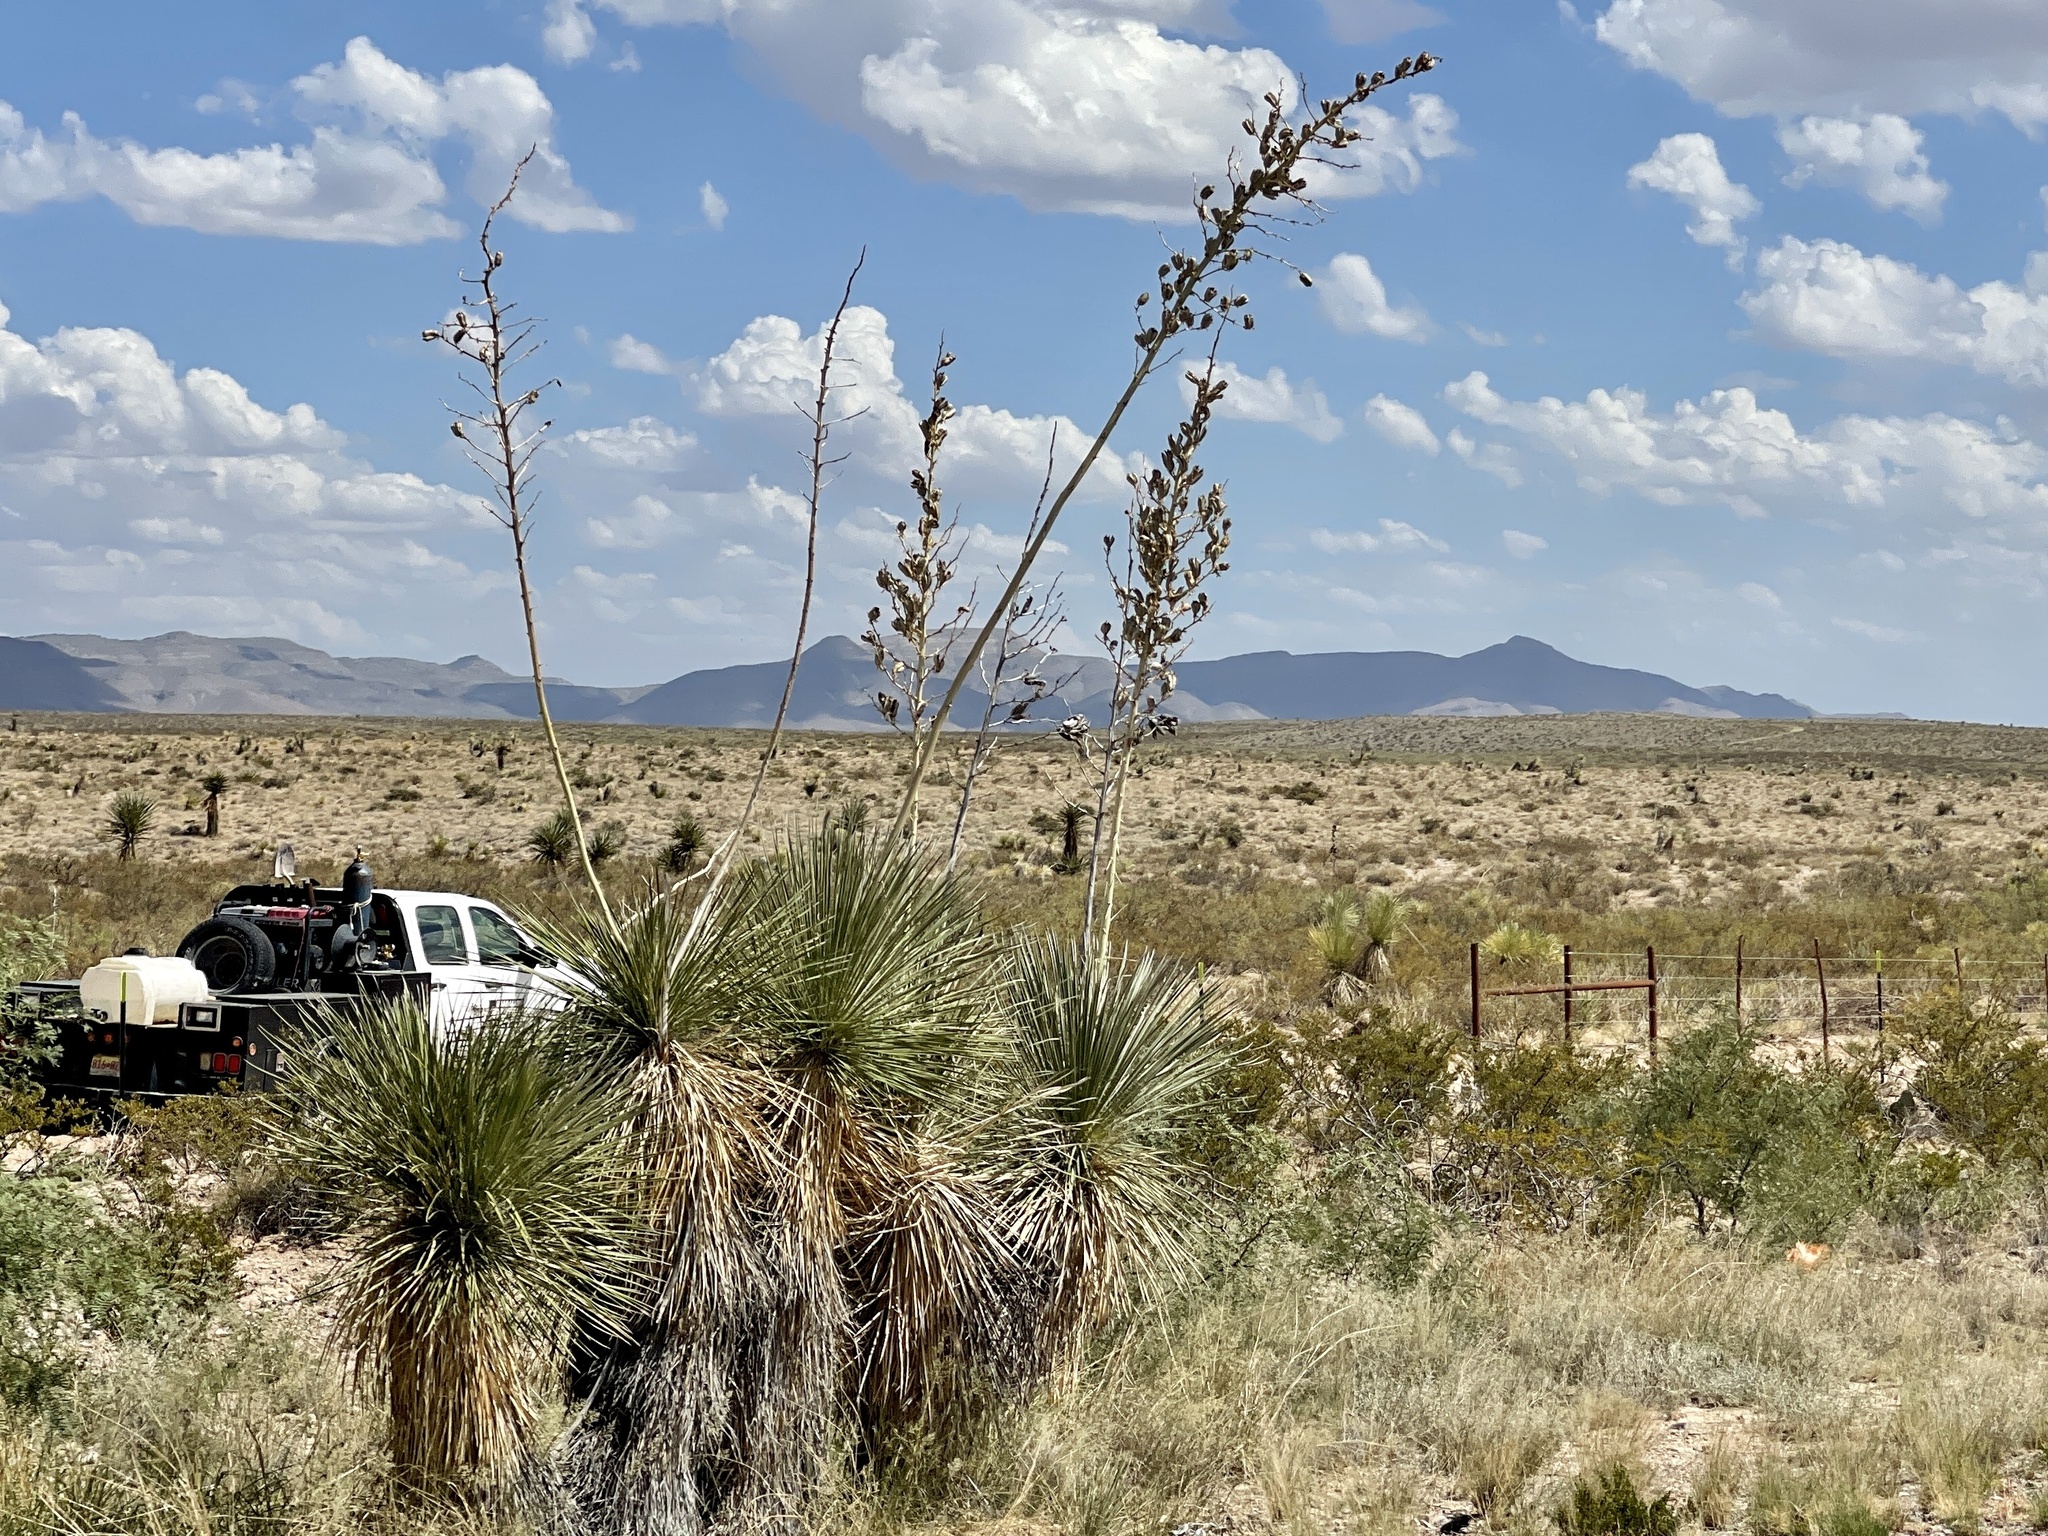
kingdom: Plantae
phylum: Tracheophyta
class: Liliopsida
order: Asparagales
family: Asparagaceae
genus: Yucca
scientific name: Yucca elata
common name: Palmella
